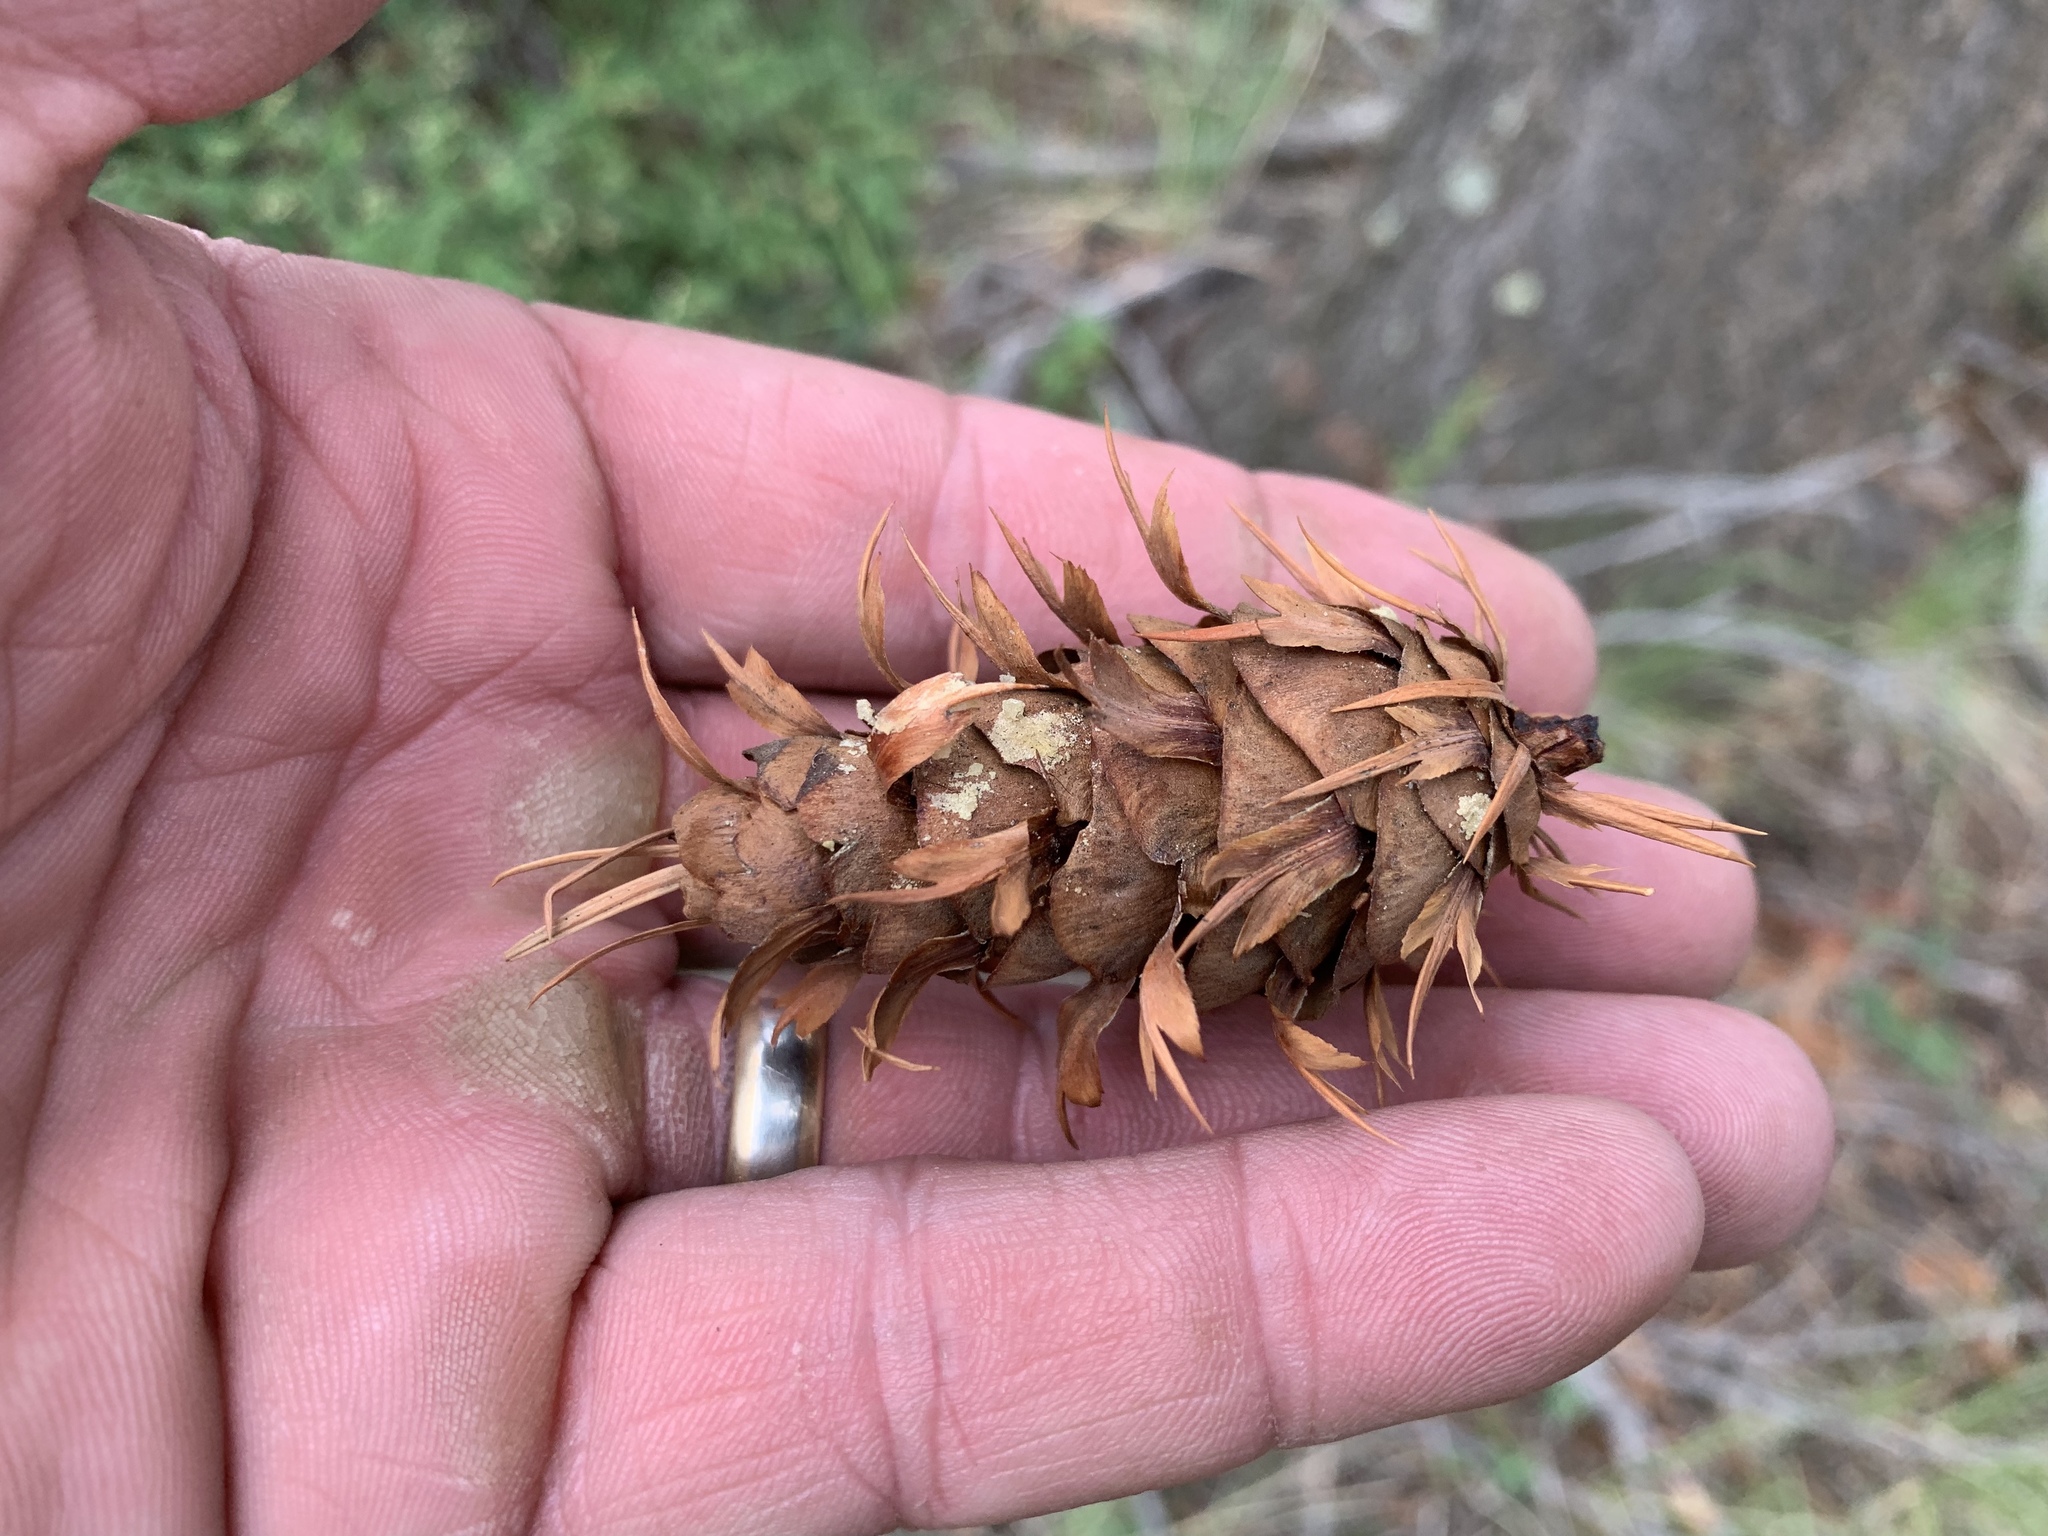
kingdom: Plantae
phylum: Tracheophyta
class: Pinopsida
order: Pinales
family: Pinaceae
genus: Pseudotsuga
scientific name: Pseudotsuga menziesii
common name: Douglas fir
